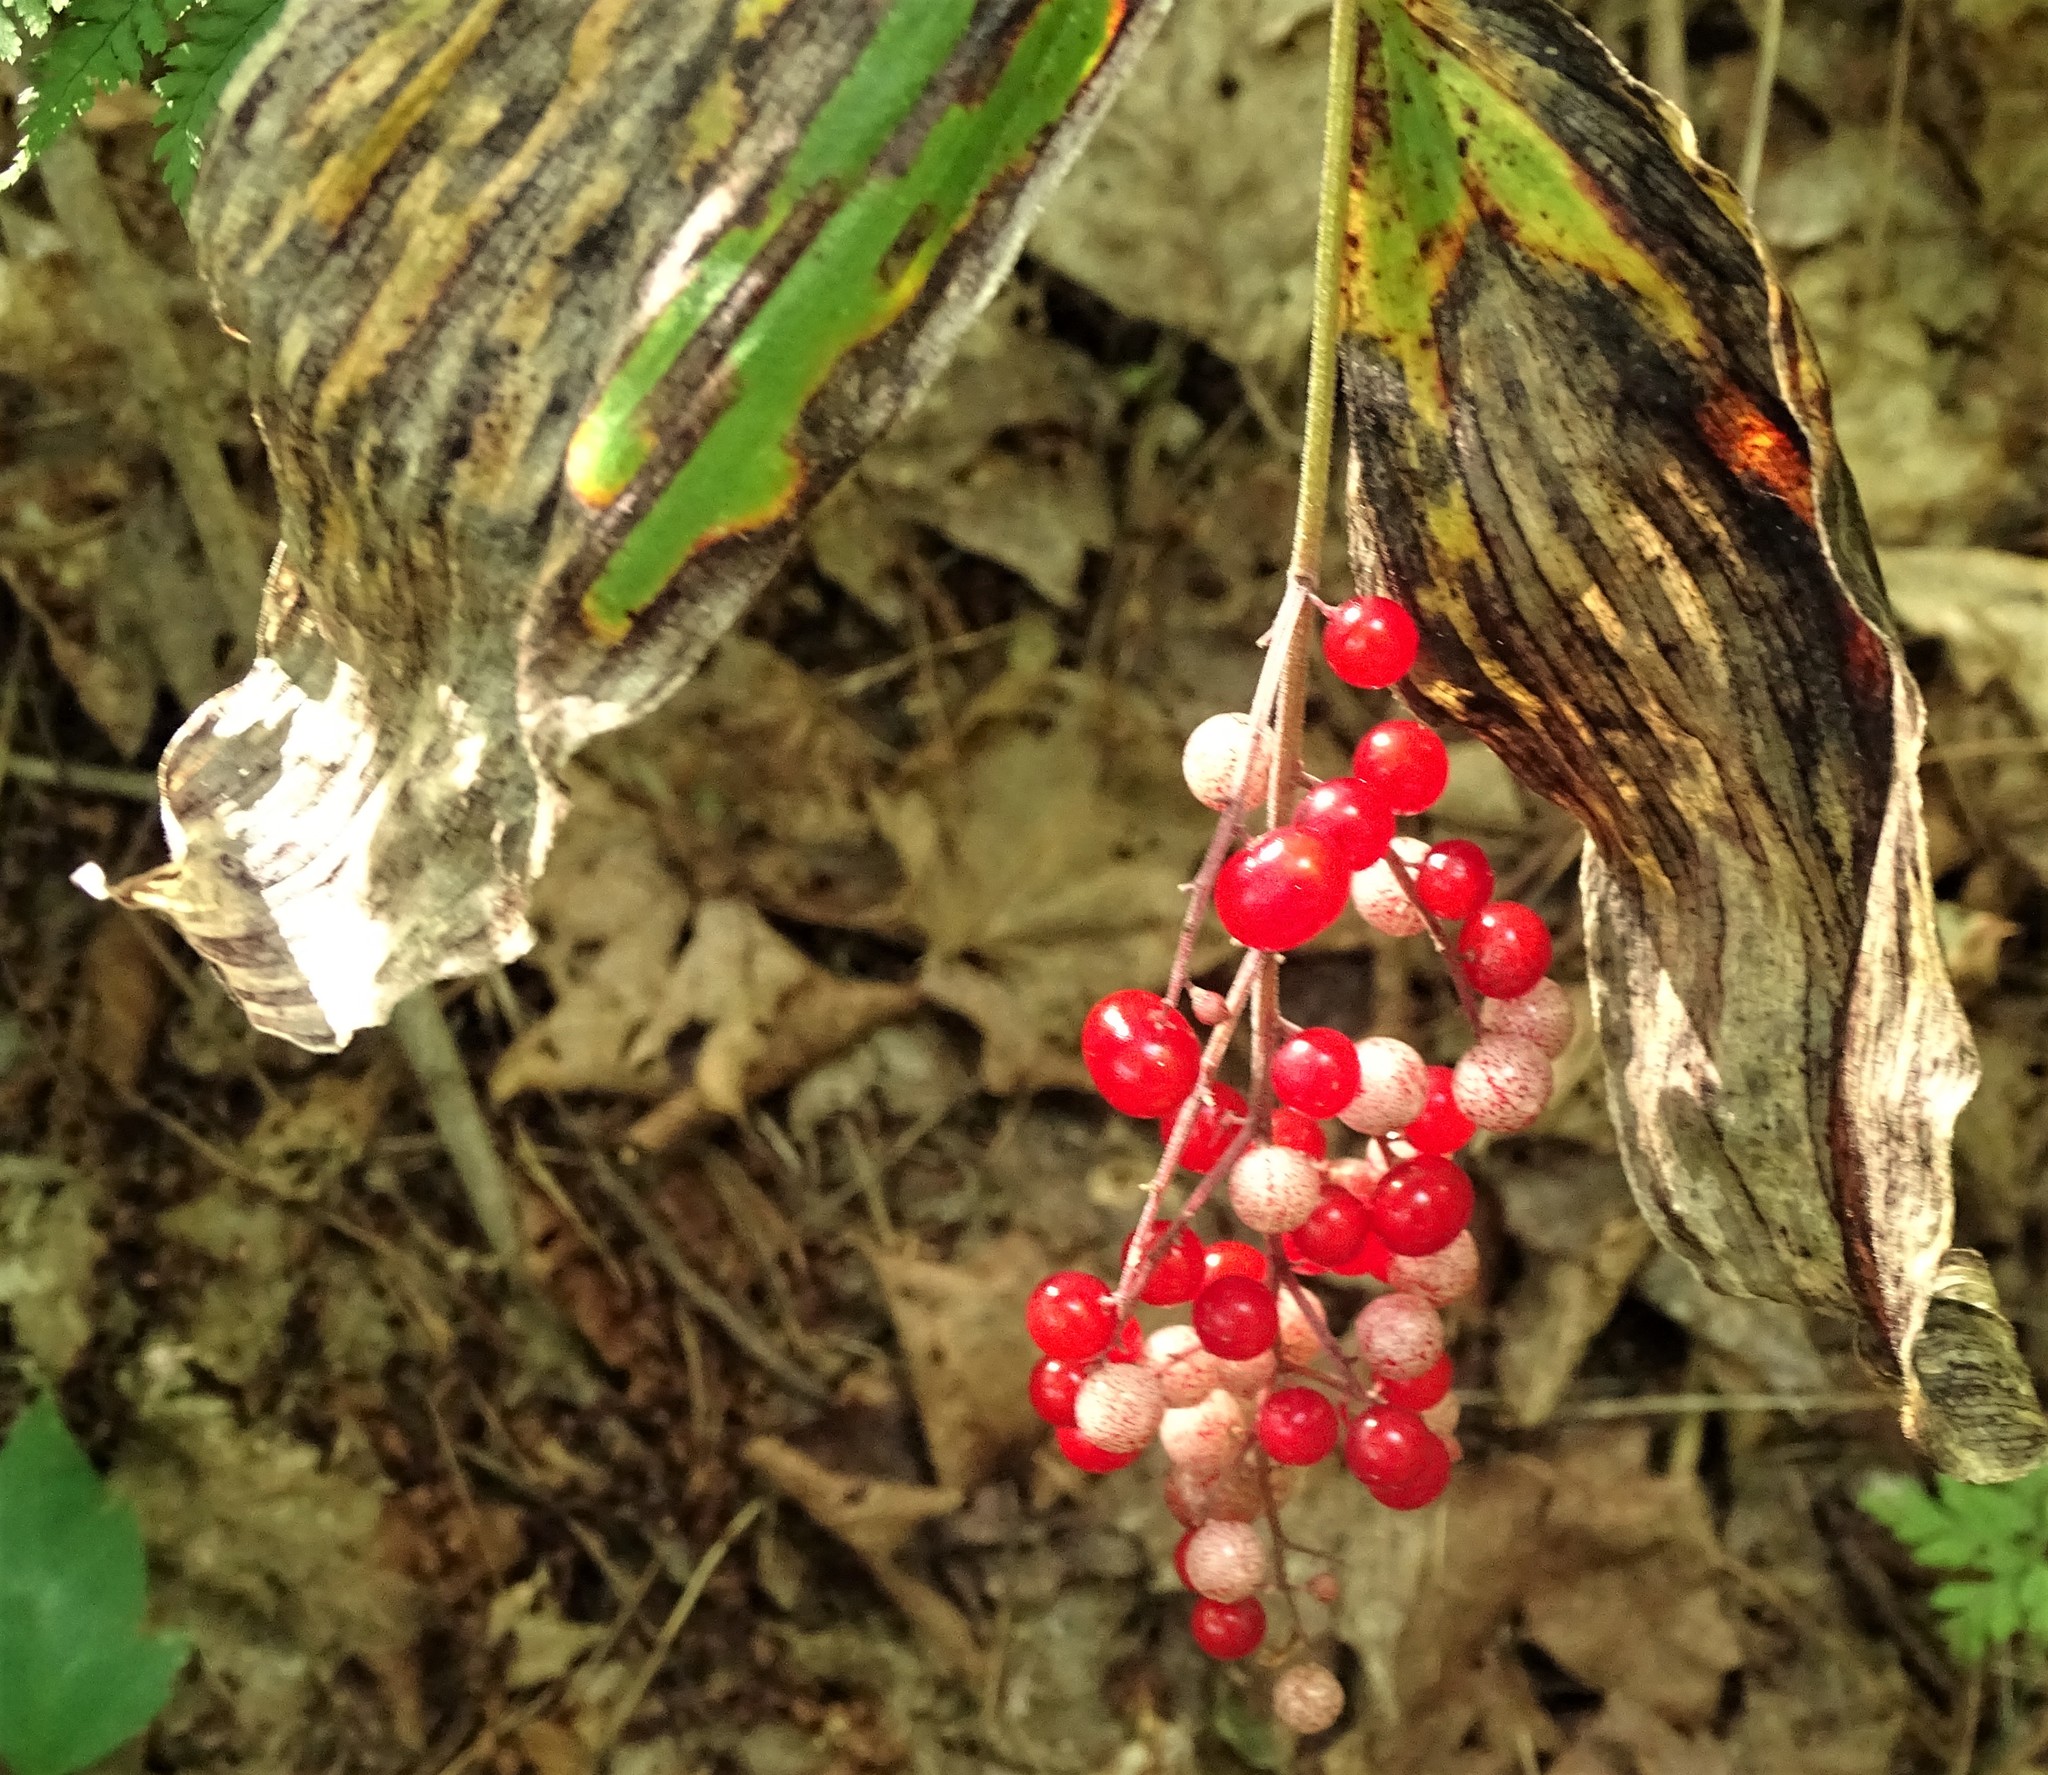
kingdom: Plantae
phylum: Tracheophyta
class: Liliopsida
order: Asparagales
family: Asparagaceae
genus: Maianthemum
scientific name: Maianthemum racemosum
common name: False spikenard
